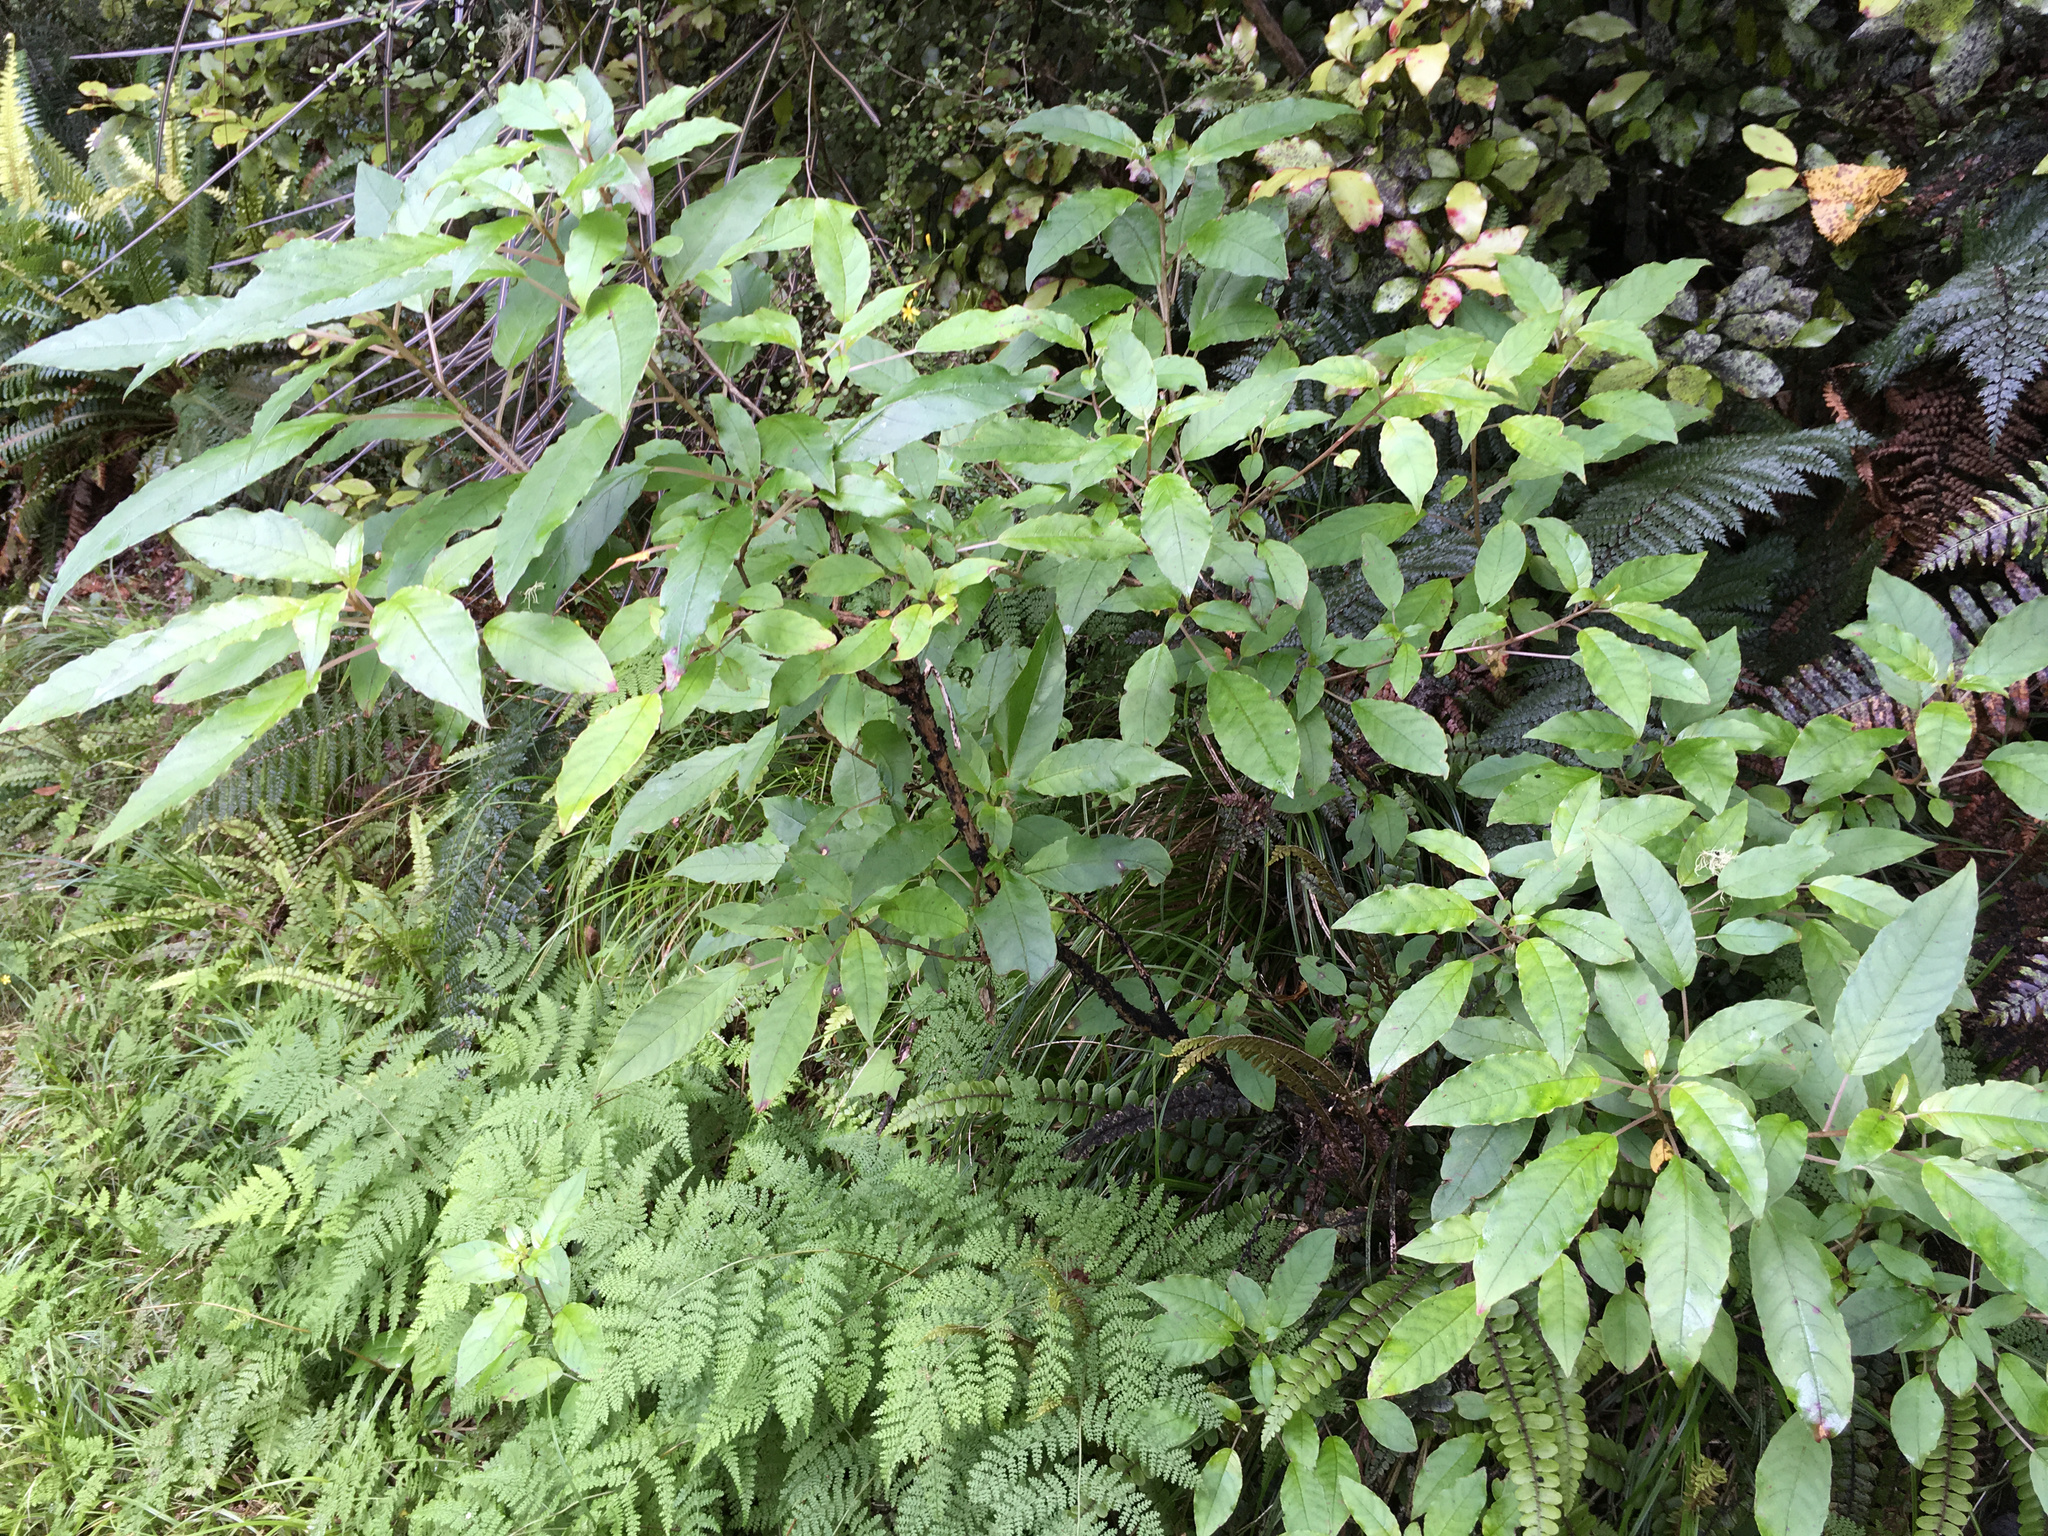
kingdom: Plantae
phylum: Tracheophyta
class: Magnoliopsida
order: Myrtales
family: Onagraceae
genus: Fuchsia
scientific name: Fuchsia excorticata
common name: Tree fuchsia
